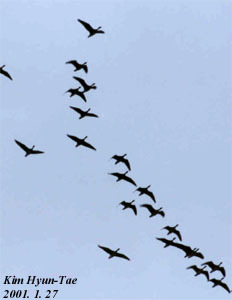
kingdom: Animalia
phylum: Chordata
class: Aves
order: Anseriformes
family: Anatidae
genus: Anser
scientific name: Anser albifrons
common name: Greater white-fronted goose
